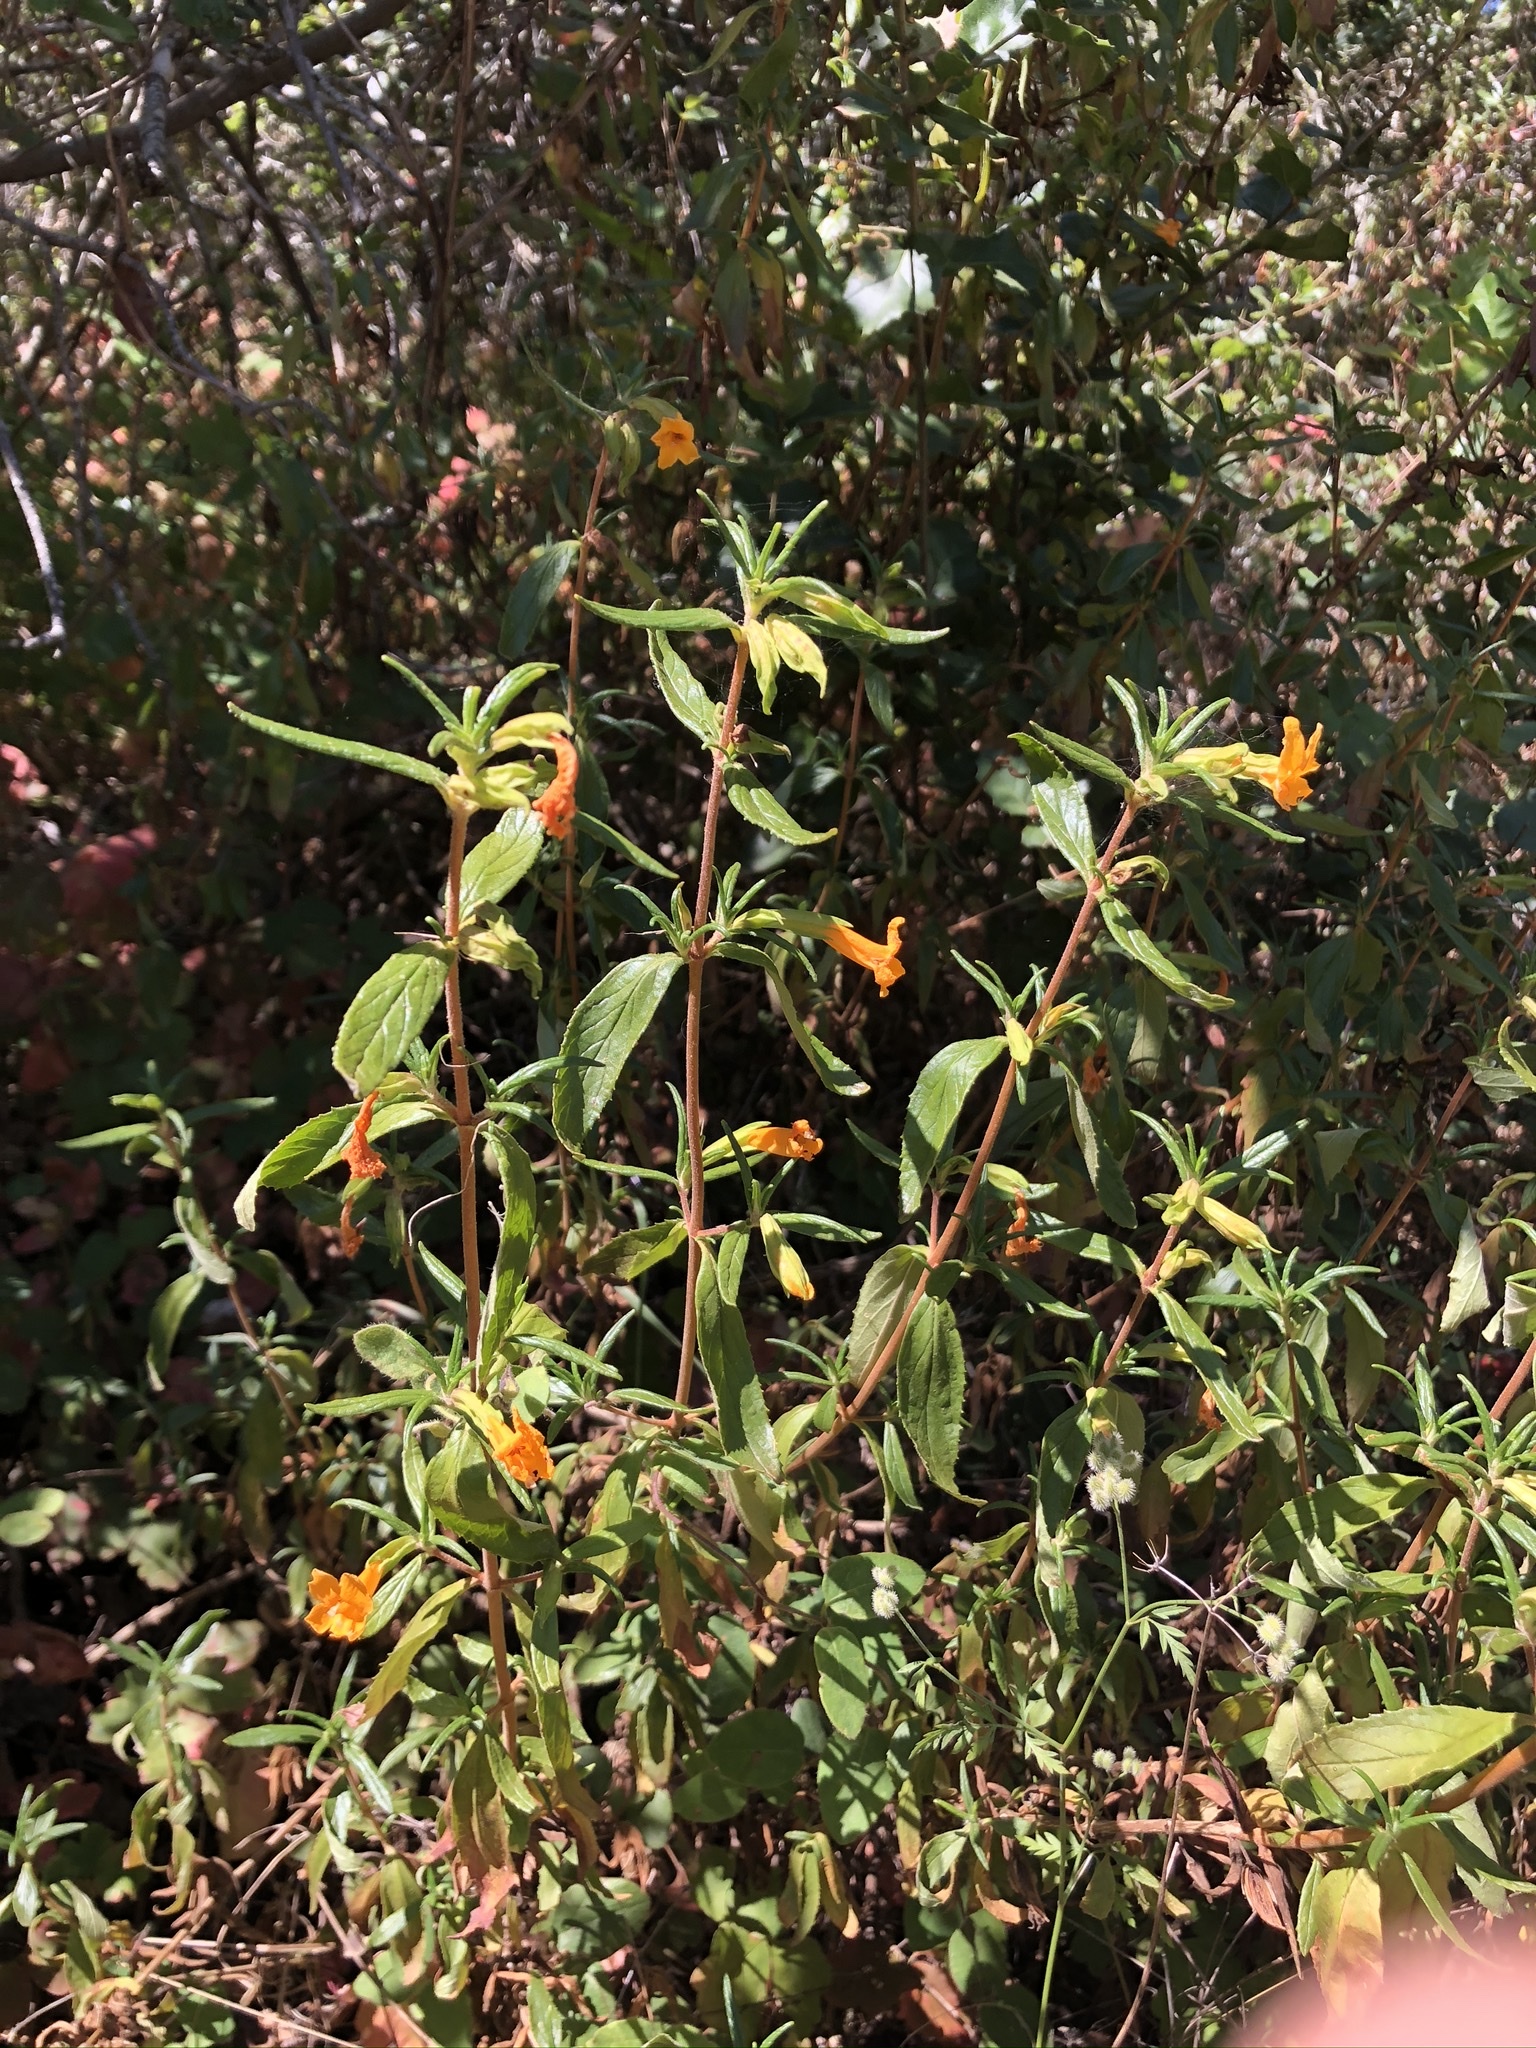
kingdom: Plantae
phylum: Tracheophyta
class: Magnoliopsida
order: Lamiales
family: Phrymaceae
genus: Diplacus
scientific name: Diplacus aurantiacus
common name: Bush monkey-flower
